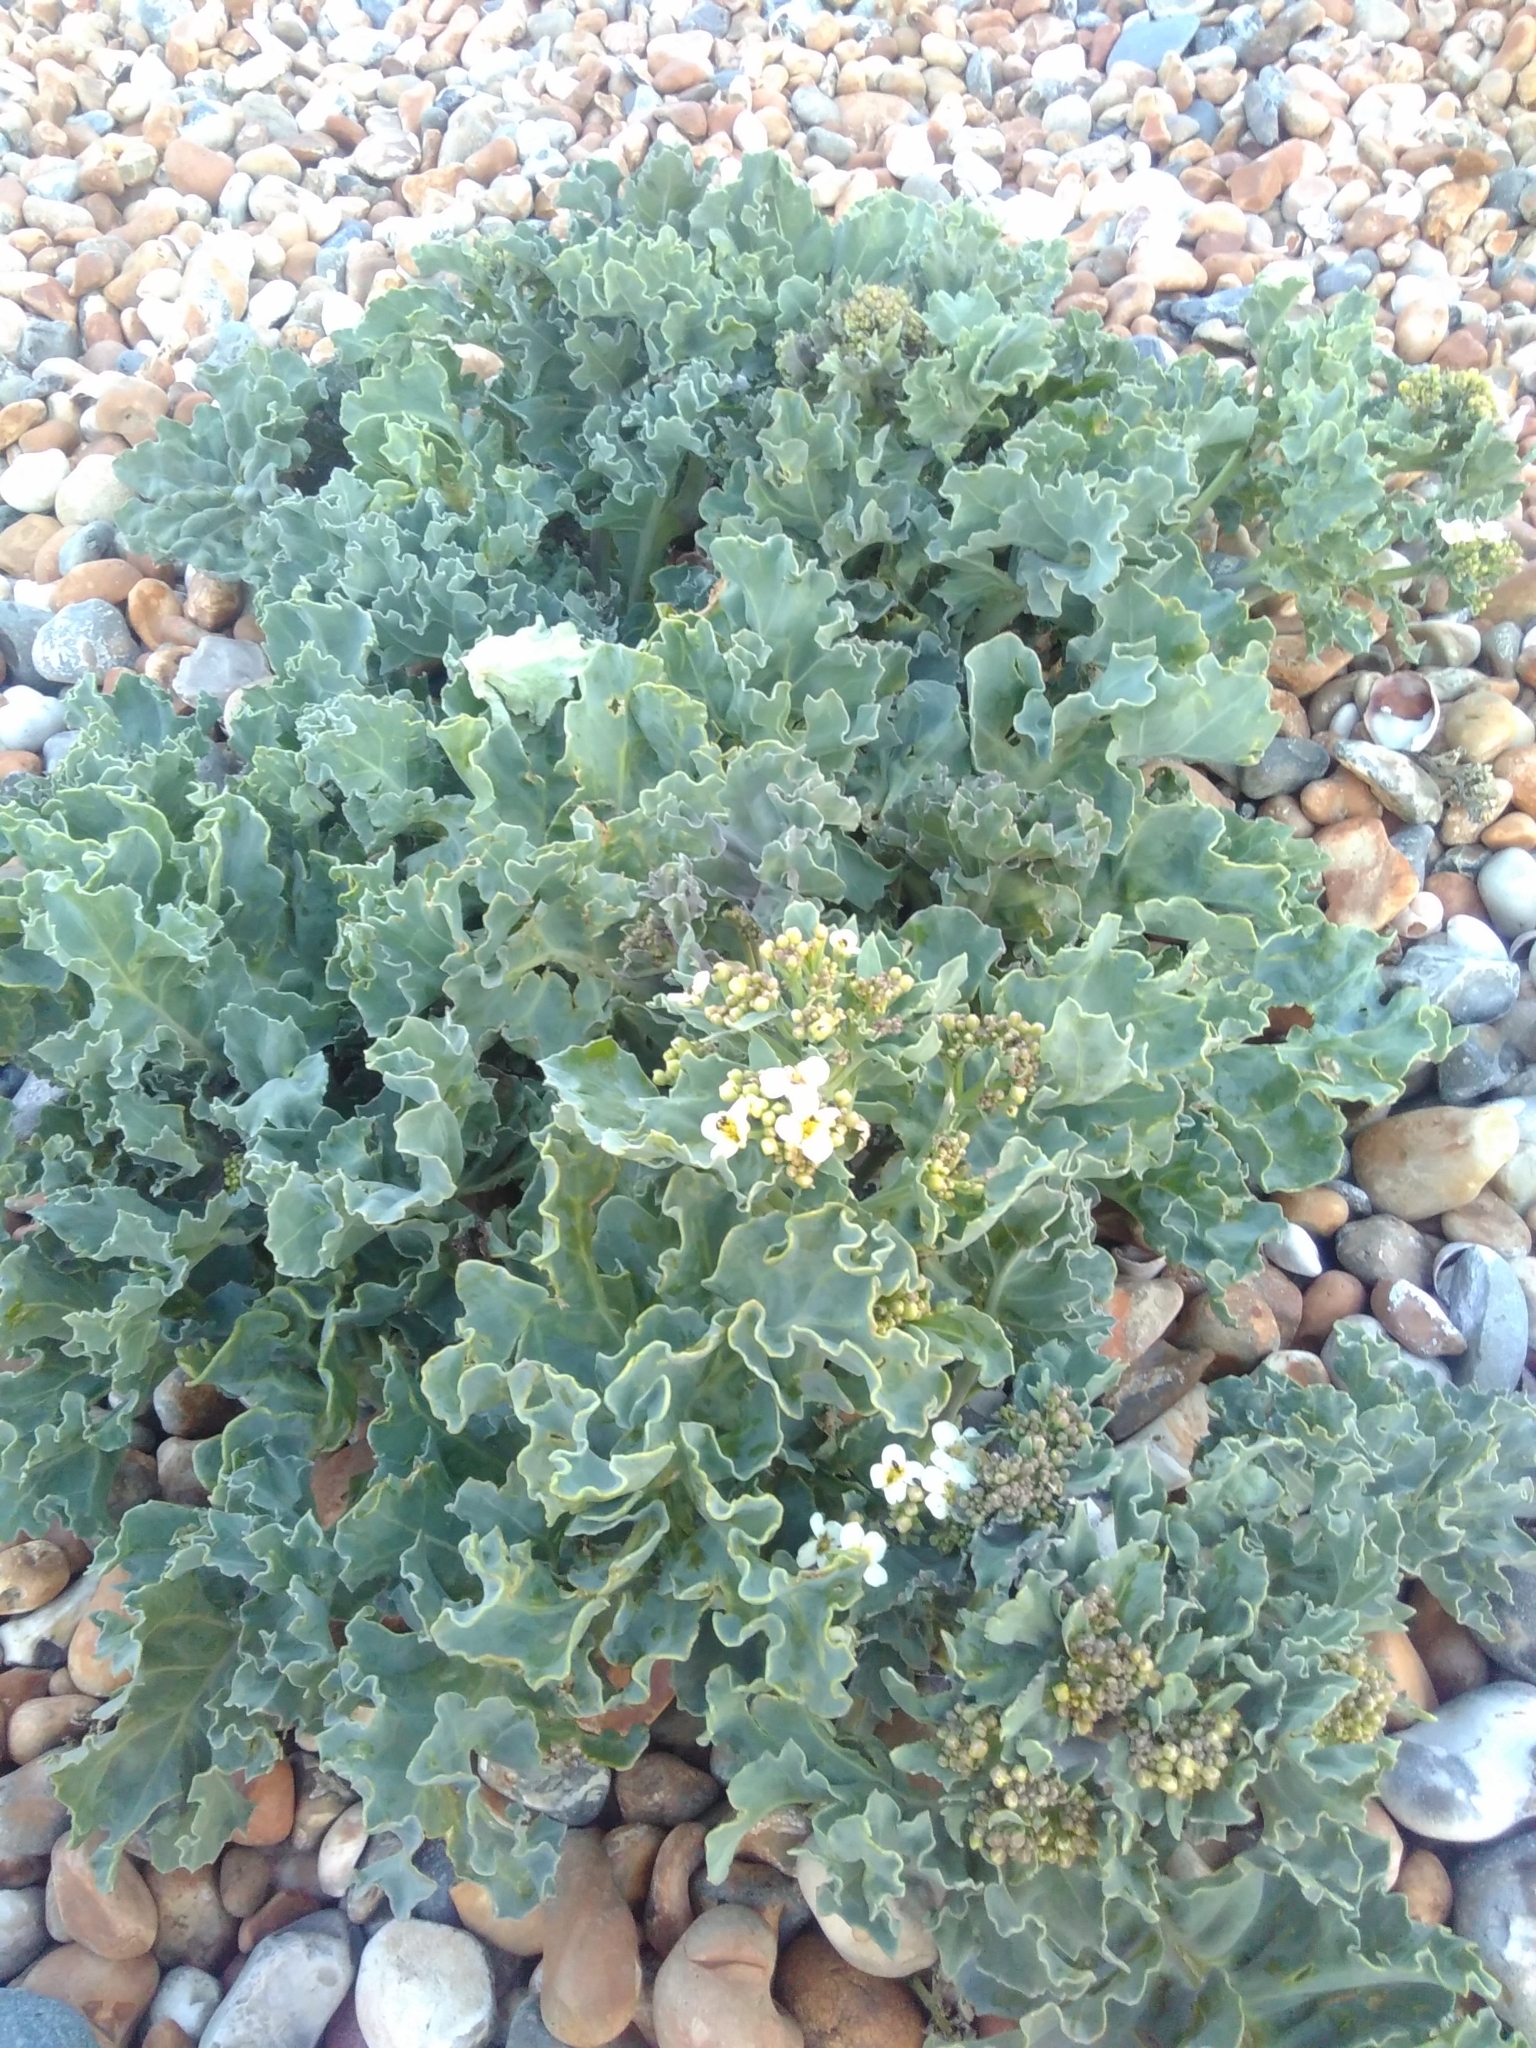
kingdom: Plantae
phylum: Tracheophyta
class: Magnoliopsida
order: Brassicales
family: Brassicaceae
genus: Crambe
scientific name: Crambe maritima
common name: Sea-kale
